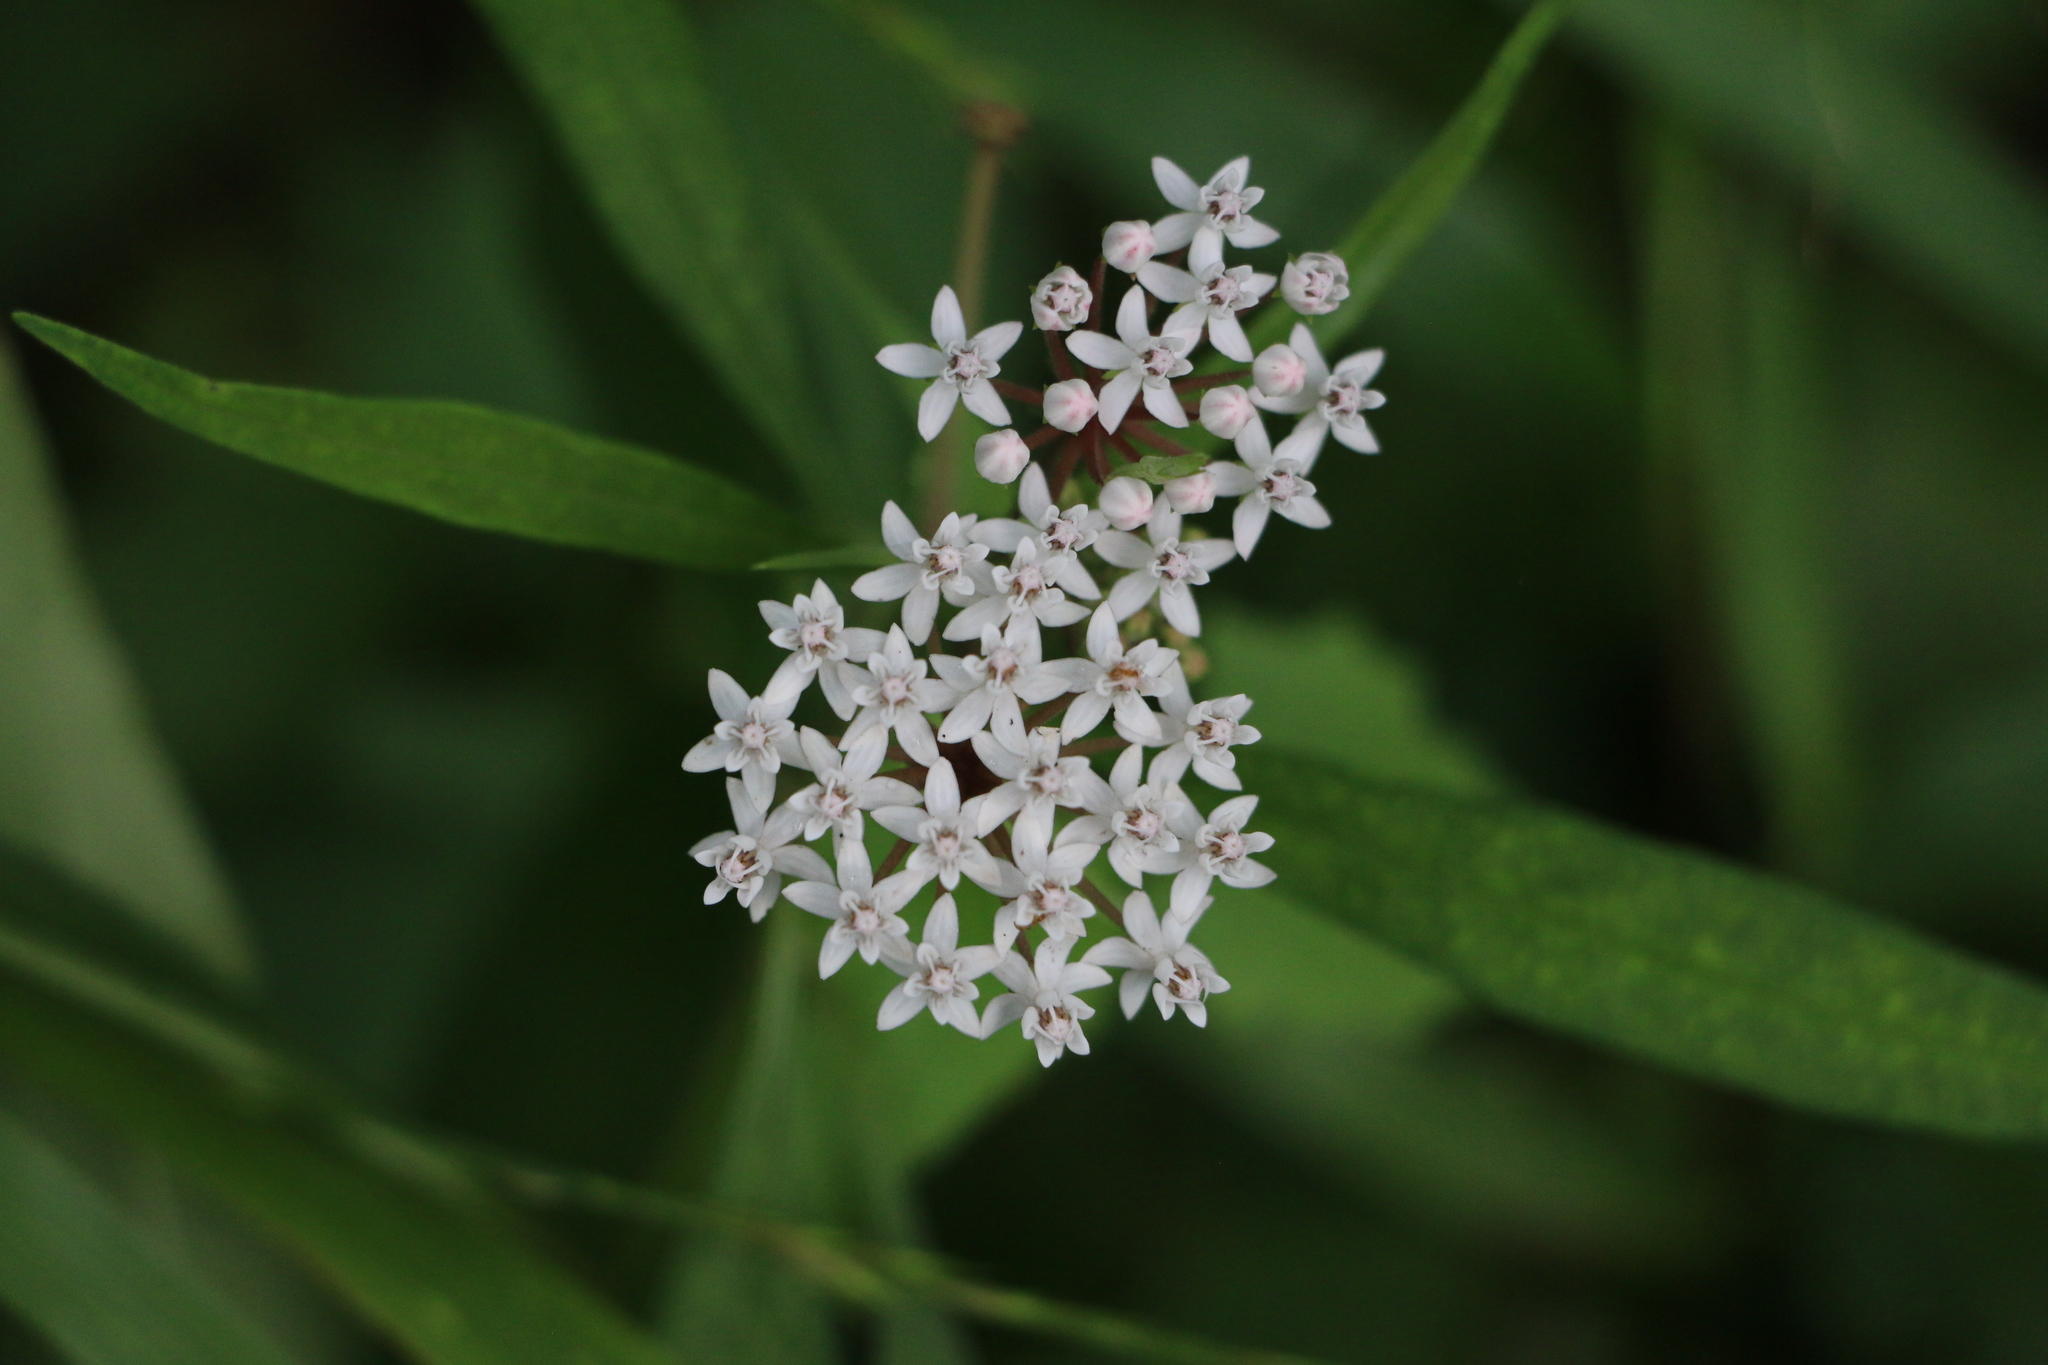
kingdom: Plantae
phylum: Tracheophyta
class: Magnoliopsida
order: Gentianales
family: Apocynaceae
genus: Asclepias
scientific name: Asclepias perennis
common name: Smooth-seed milkweed
